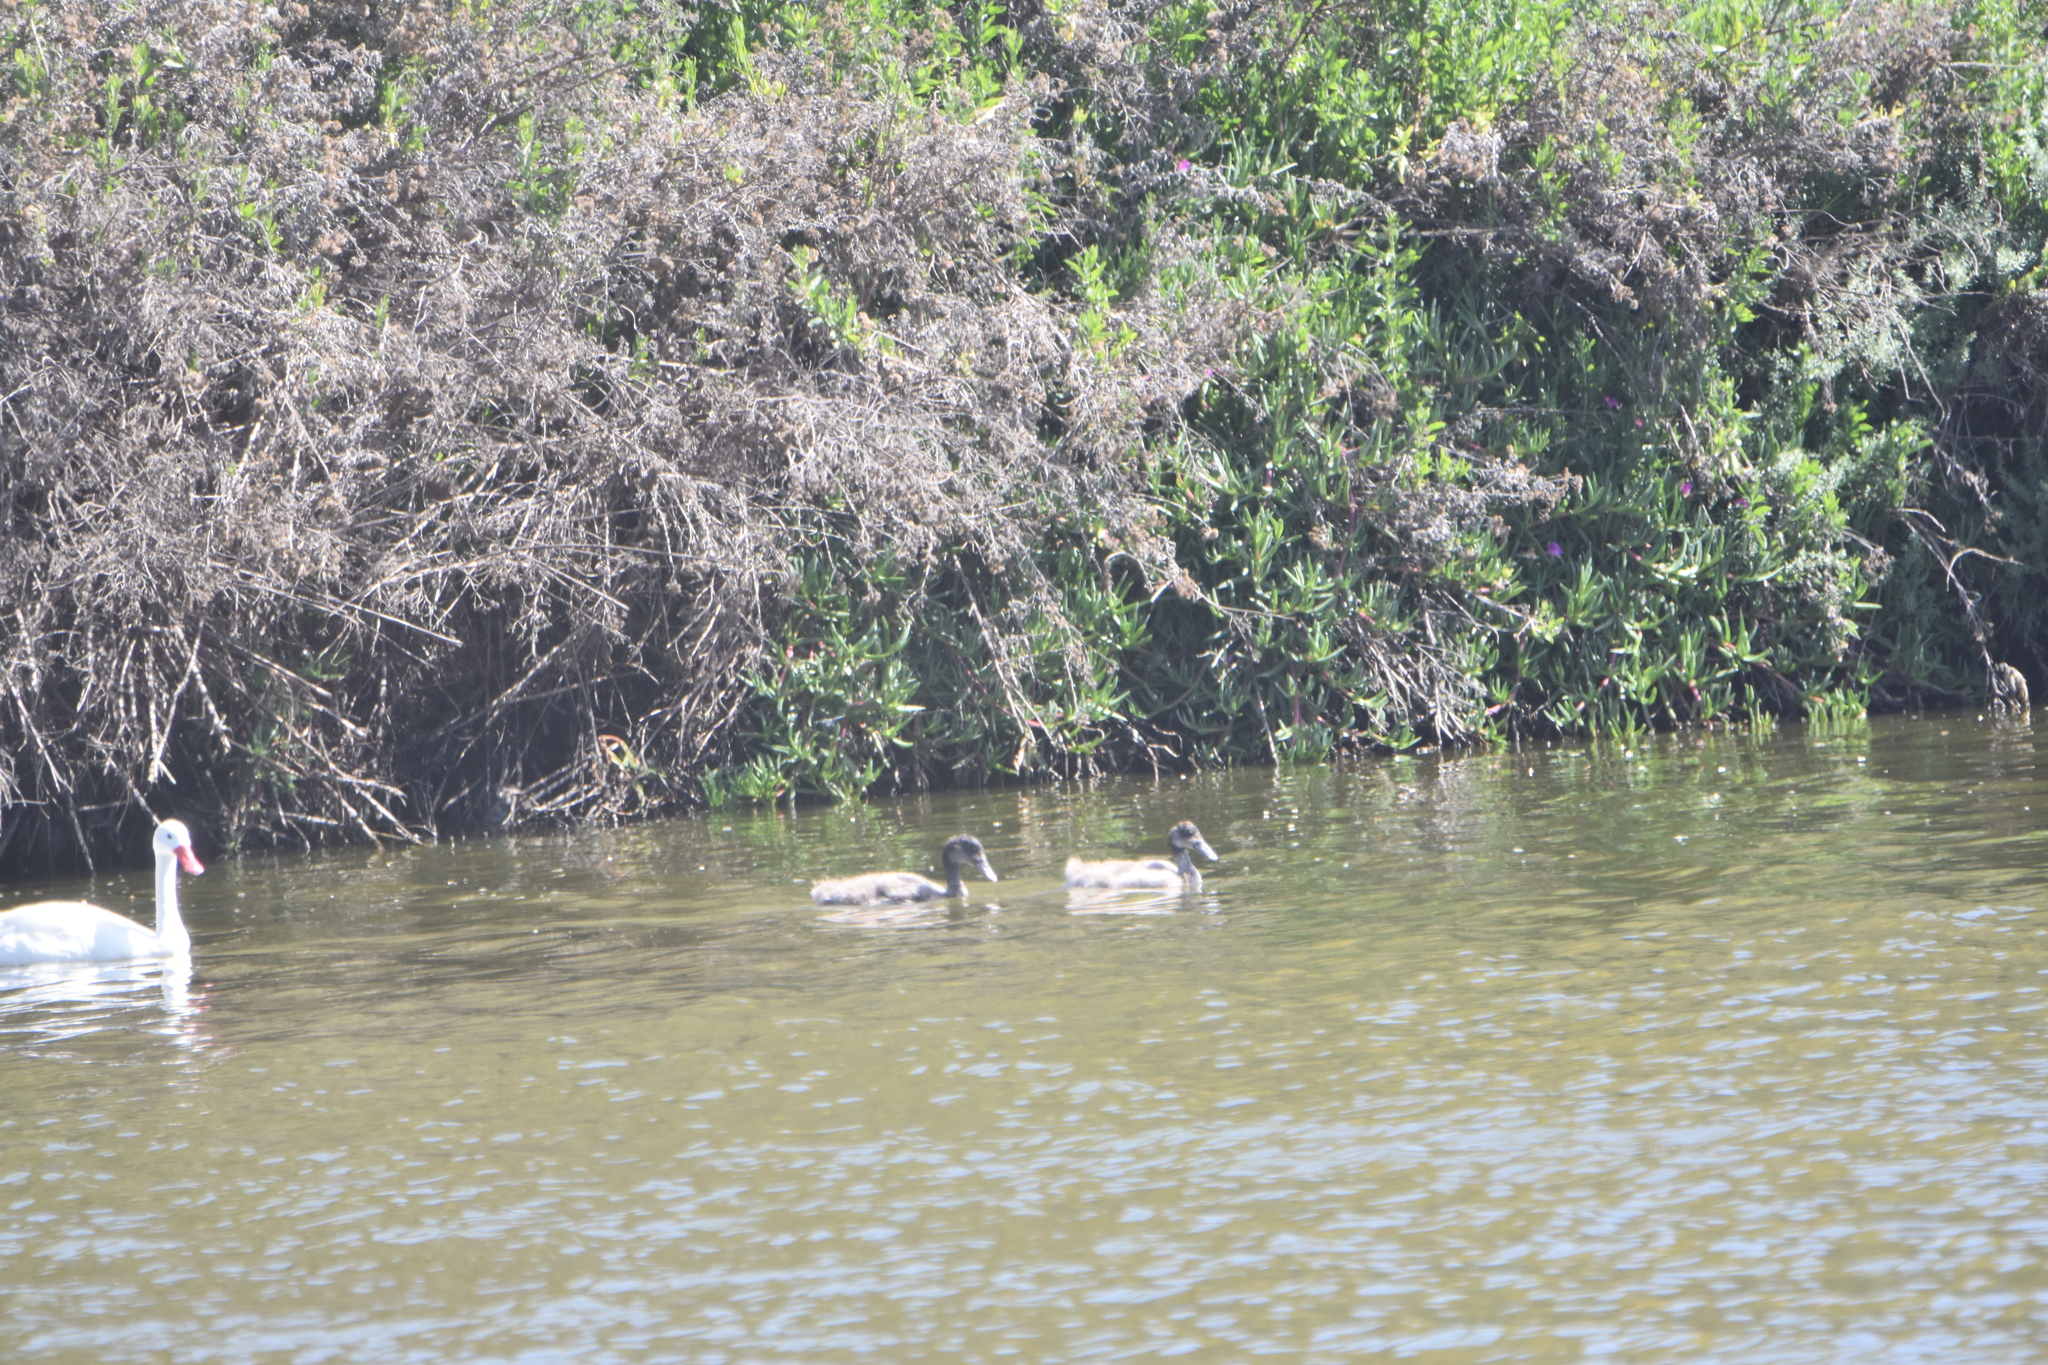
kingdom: Animalia
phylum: Chordata
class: Aves
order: Anseriformes
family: Anatidae
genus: Coscoroba
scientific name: Coscoroba coscoroba
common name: Coscoroba swan
